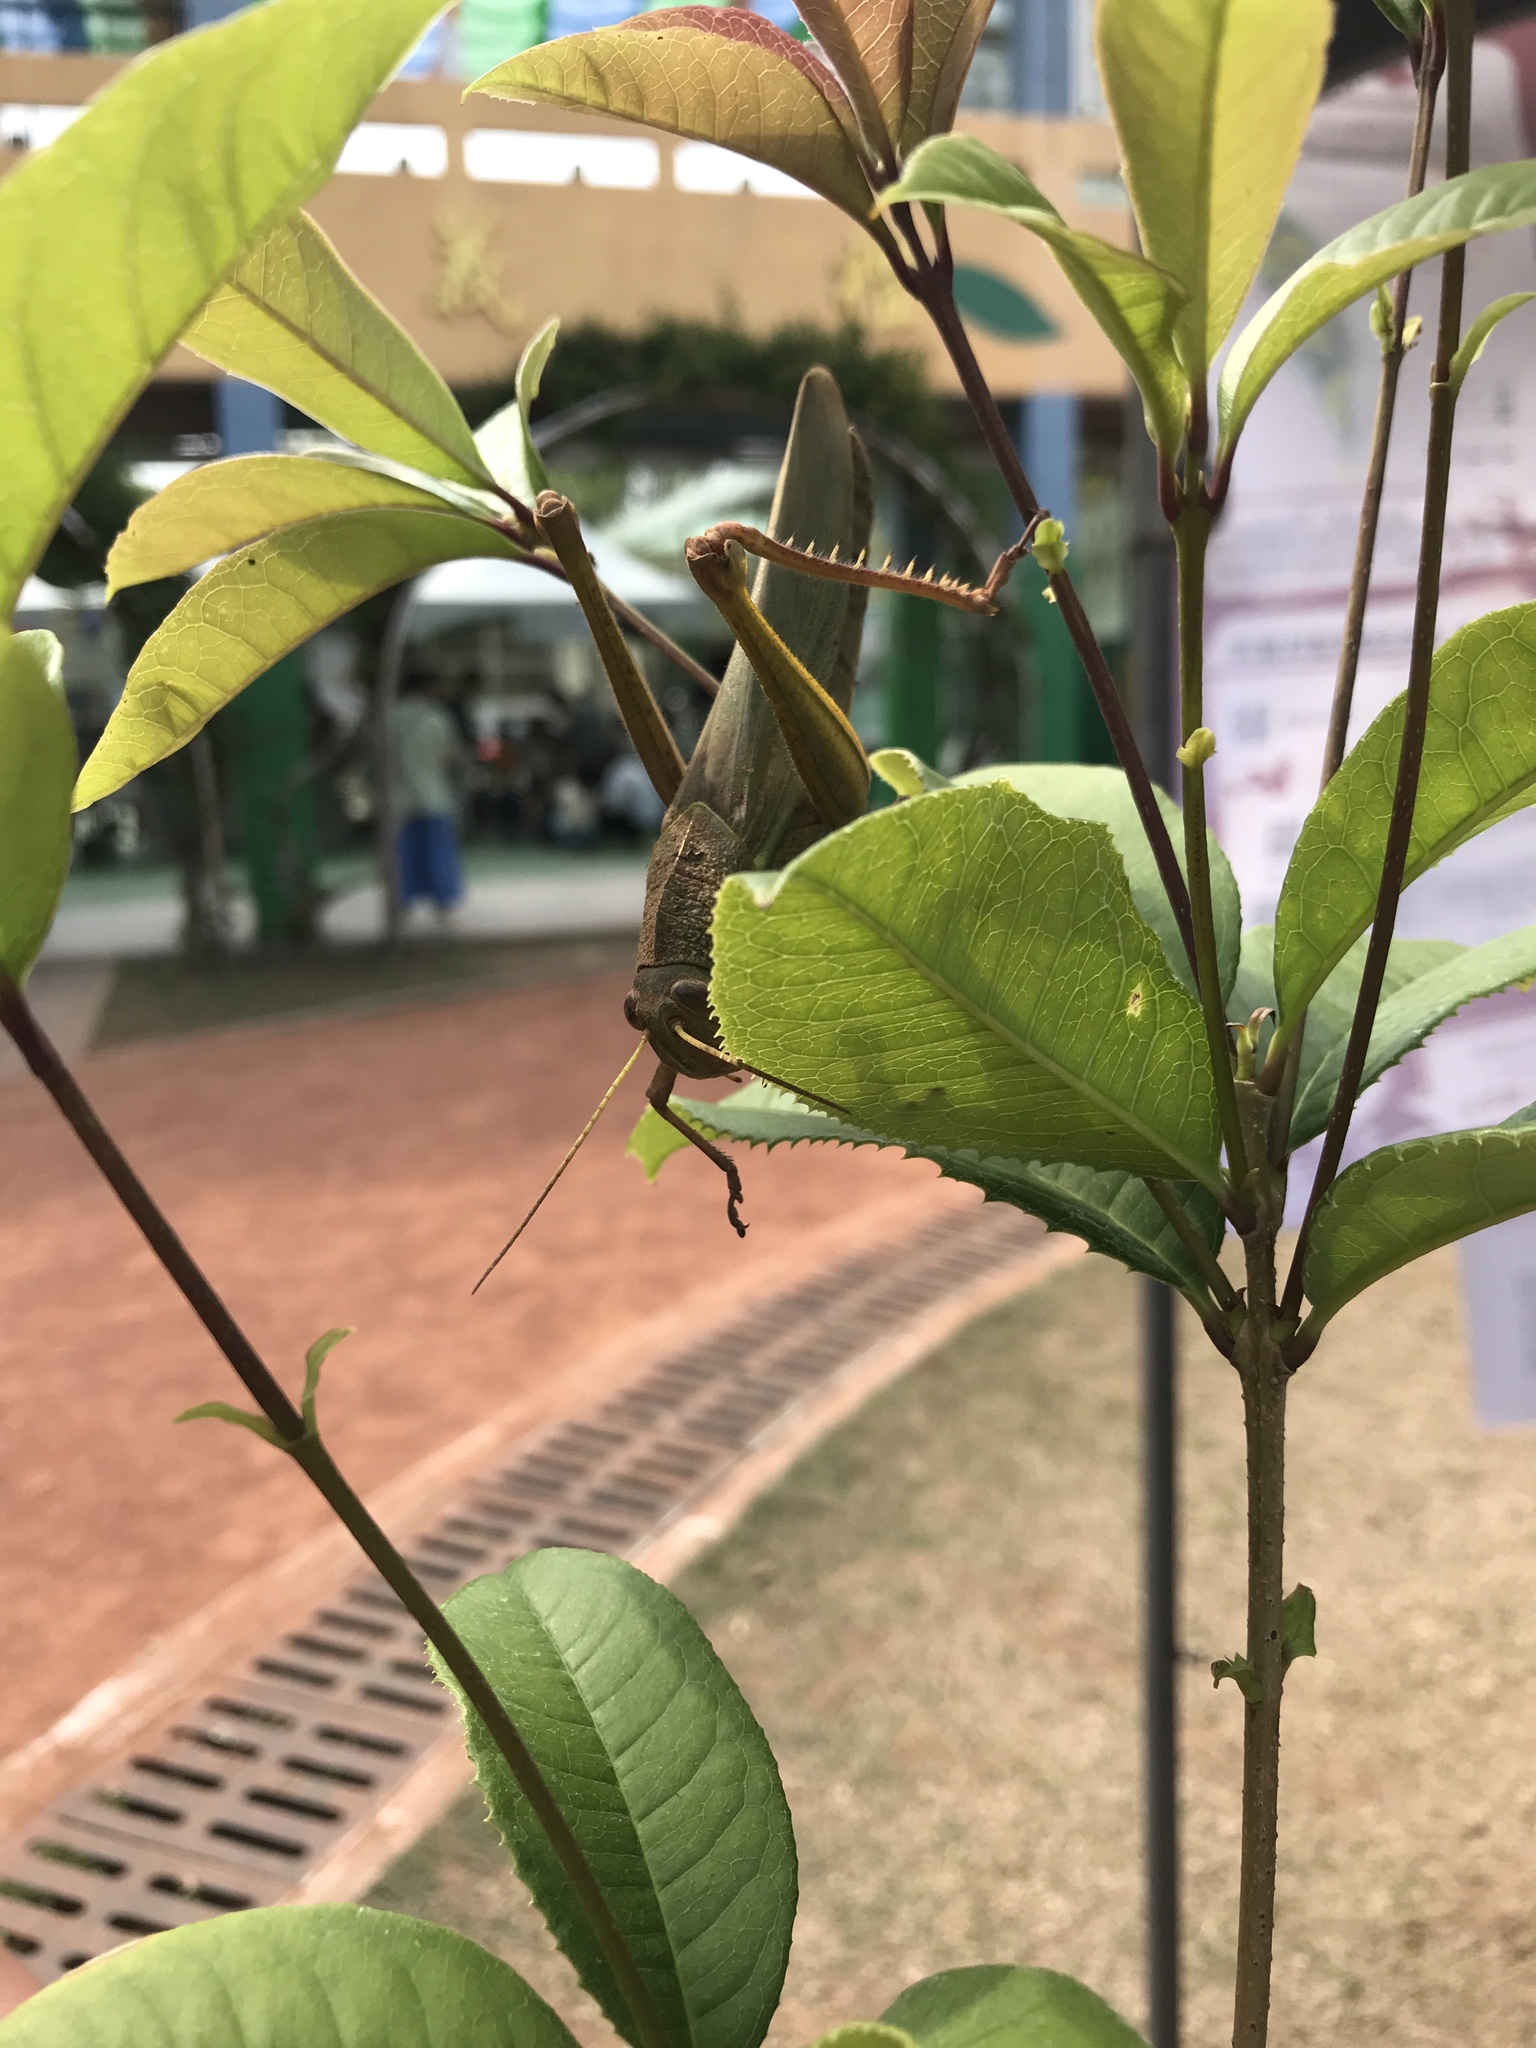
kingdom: Animalia
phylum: Arthropoda
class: Insecta
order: Orthoptera
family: Acrididae
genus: Chondracris
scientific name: Chondracris rosea
